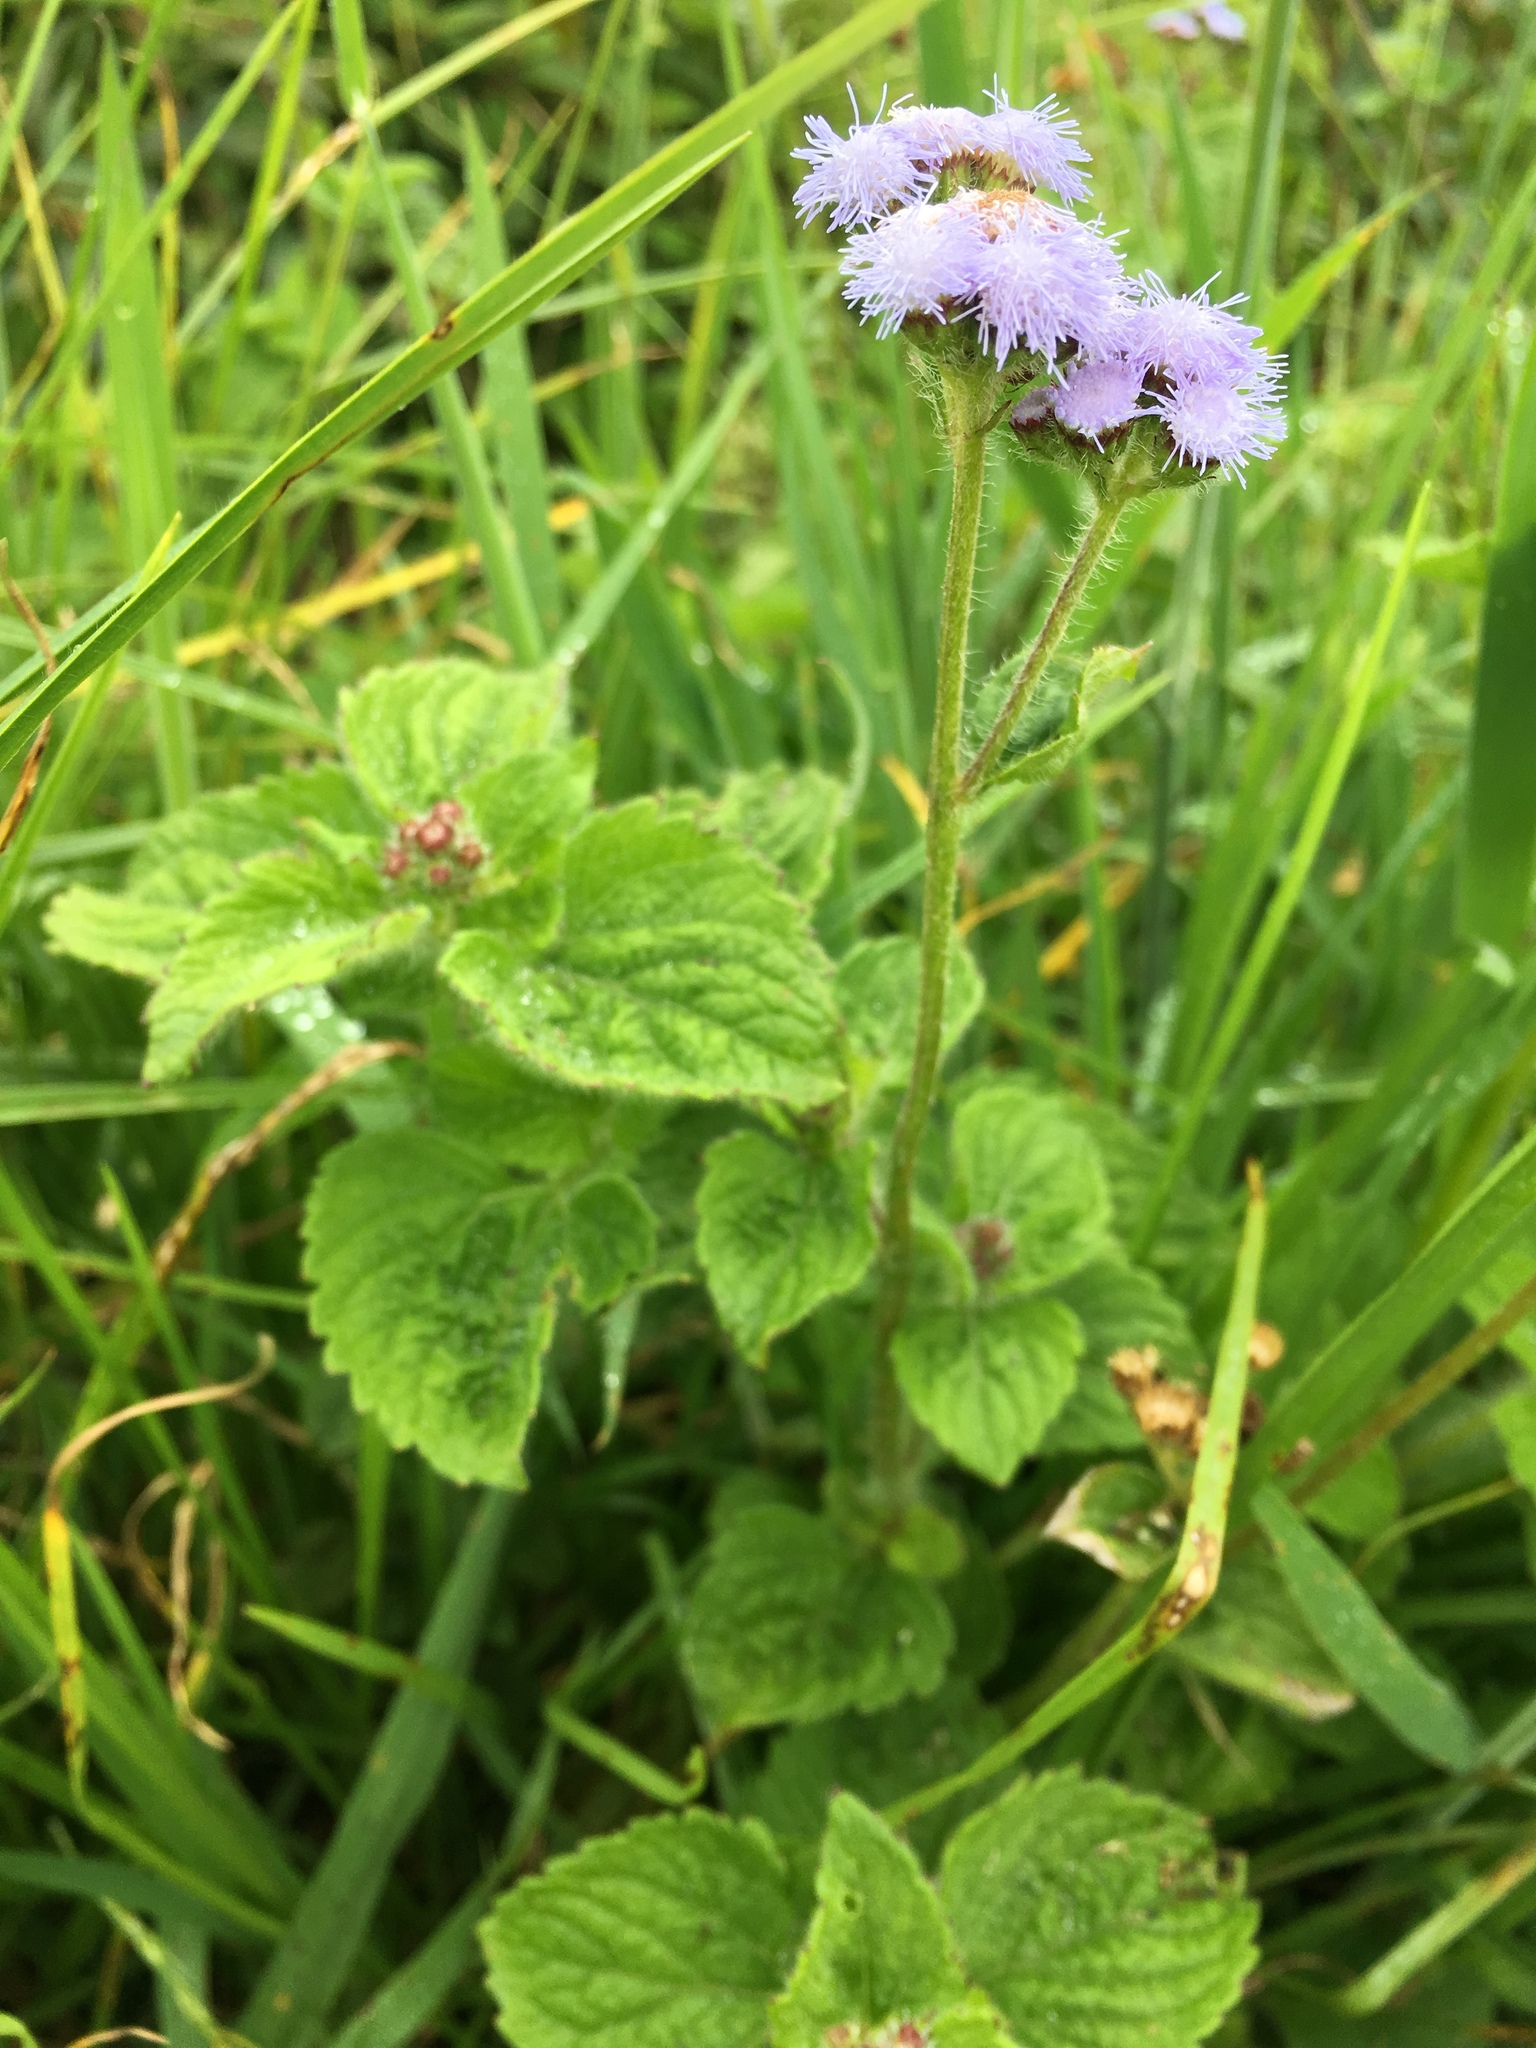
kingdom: Plantae
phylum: Tracheophyta
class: Magnoliopsida
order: Asterales
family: Asteraceae
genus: Ageratum
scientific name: Ageratum houstonianum
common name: Bluemink
